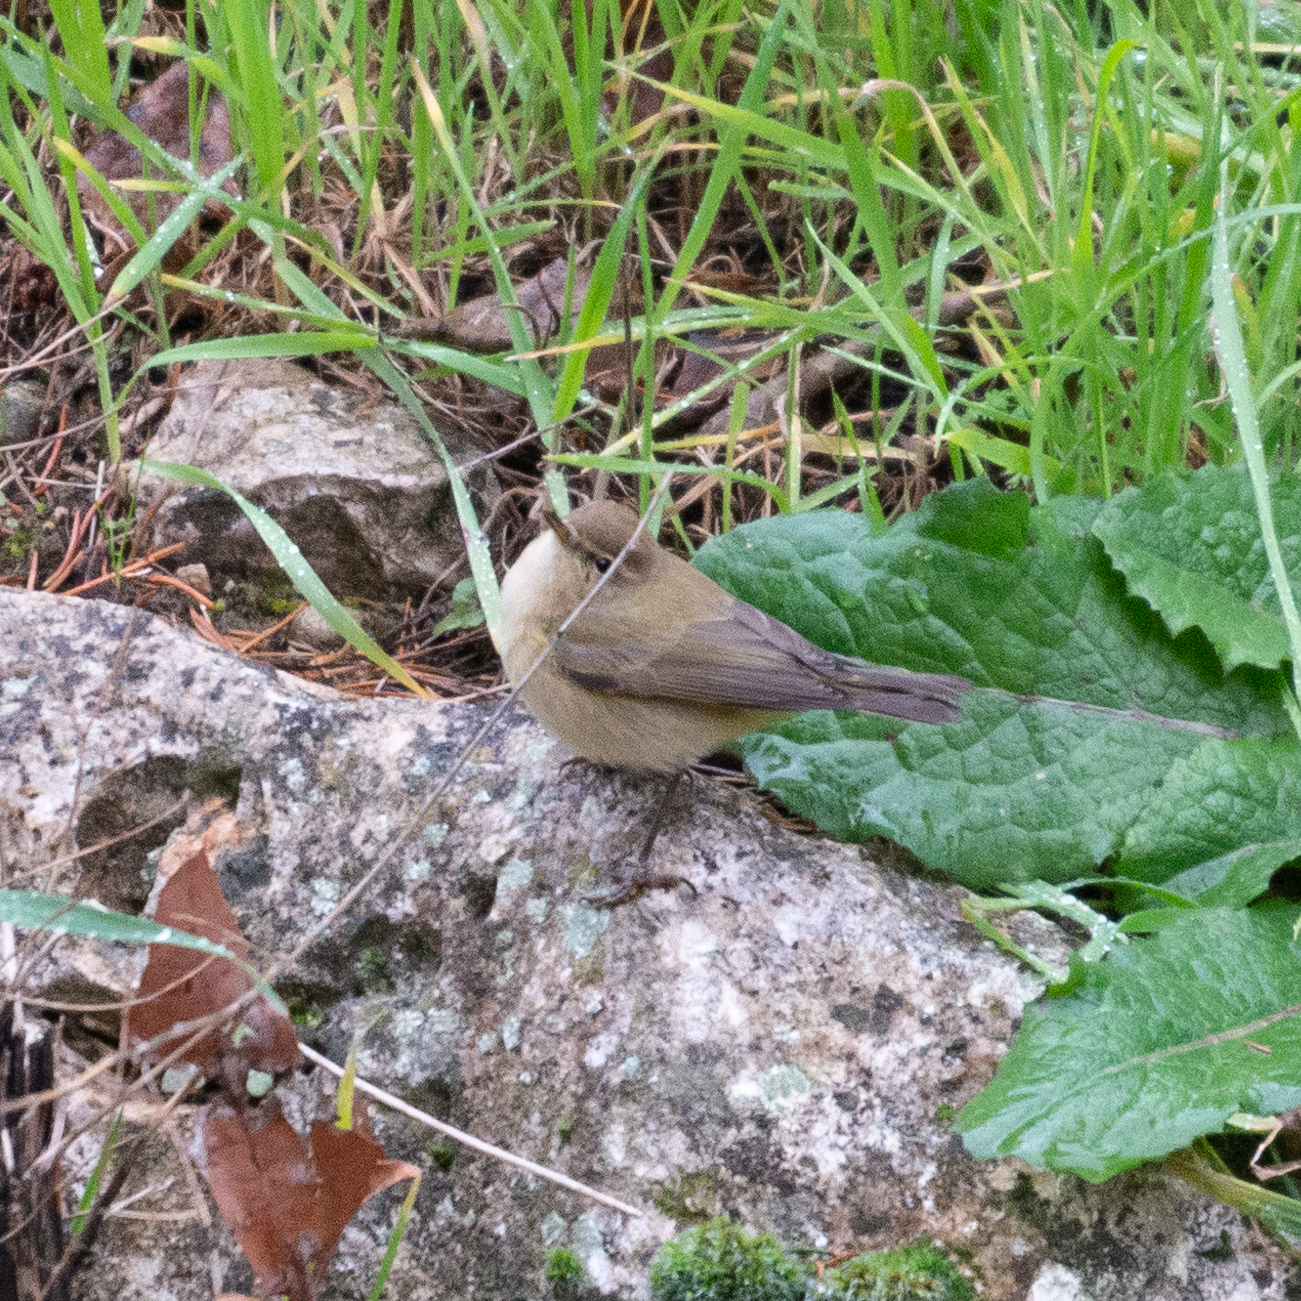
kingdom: Animalia
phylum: Chordata
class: Aves
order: Passeriformes
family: Phylloscopidae
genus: Phylloscopus
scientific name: Phylloscopus collybita
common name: Common chiffchaff
